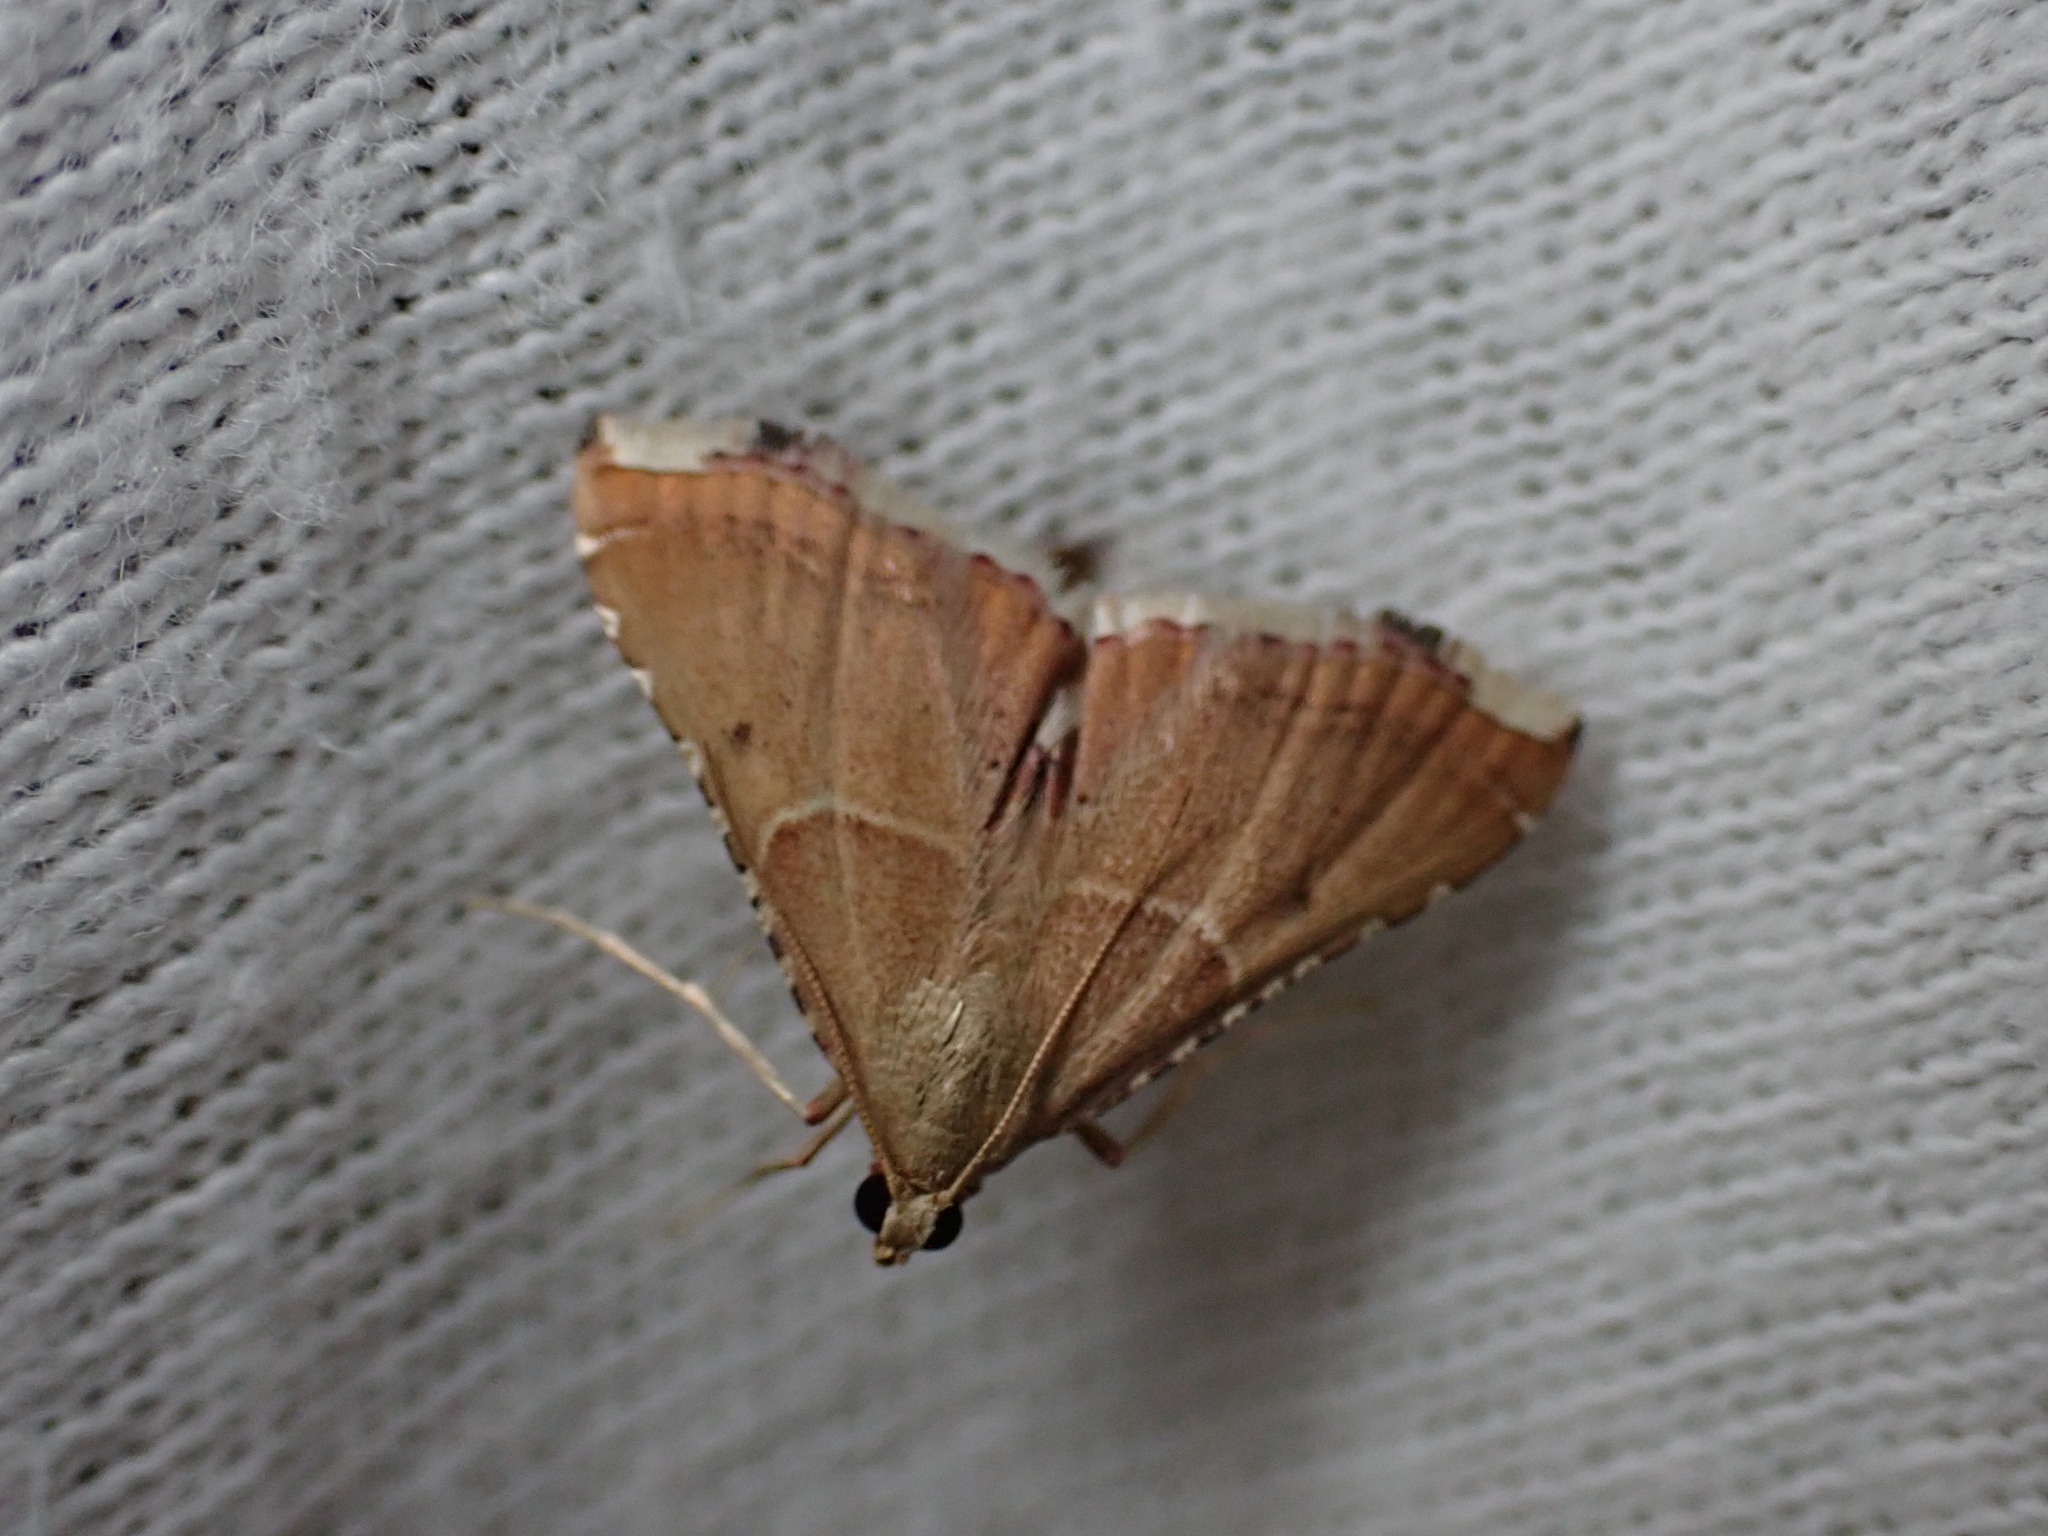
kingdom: Animalia
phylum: Arthropoda
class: Insecta
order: Lepidoptera
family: Pyralidae
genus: Endotricha
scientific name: Endotricha flammealis
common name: Rosy tabby
